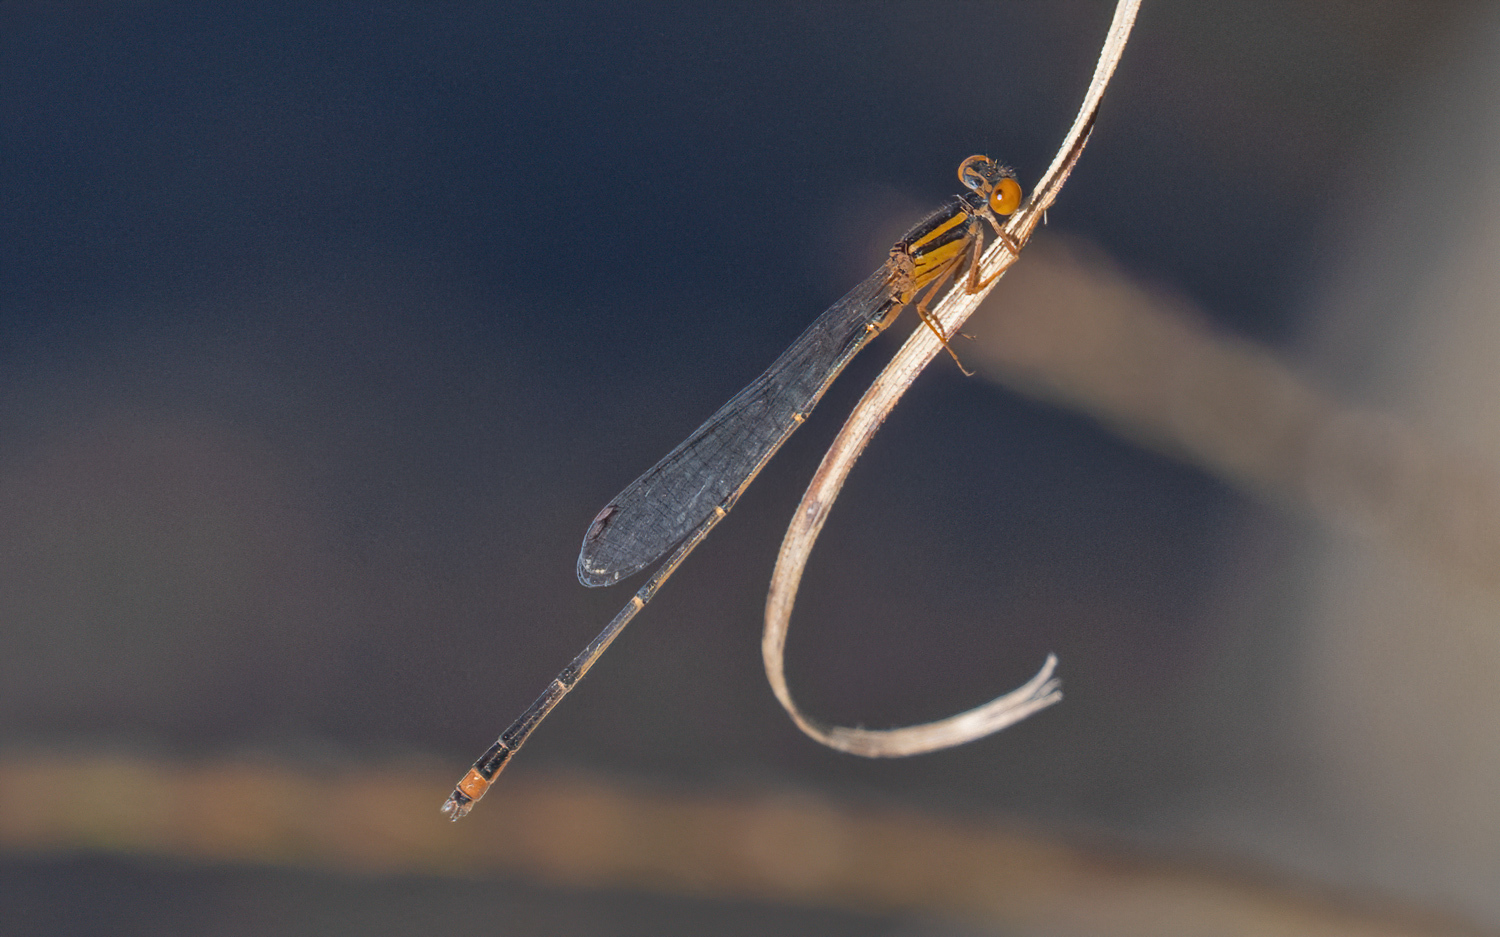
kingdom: Animalia
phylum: Arthropoda
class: Insecta
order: Odonata
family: Coenagrionidae
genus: Enallagma
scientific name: Enallagma signatum
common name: Orange bluet
